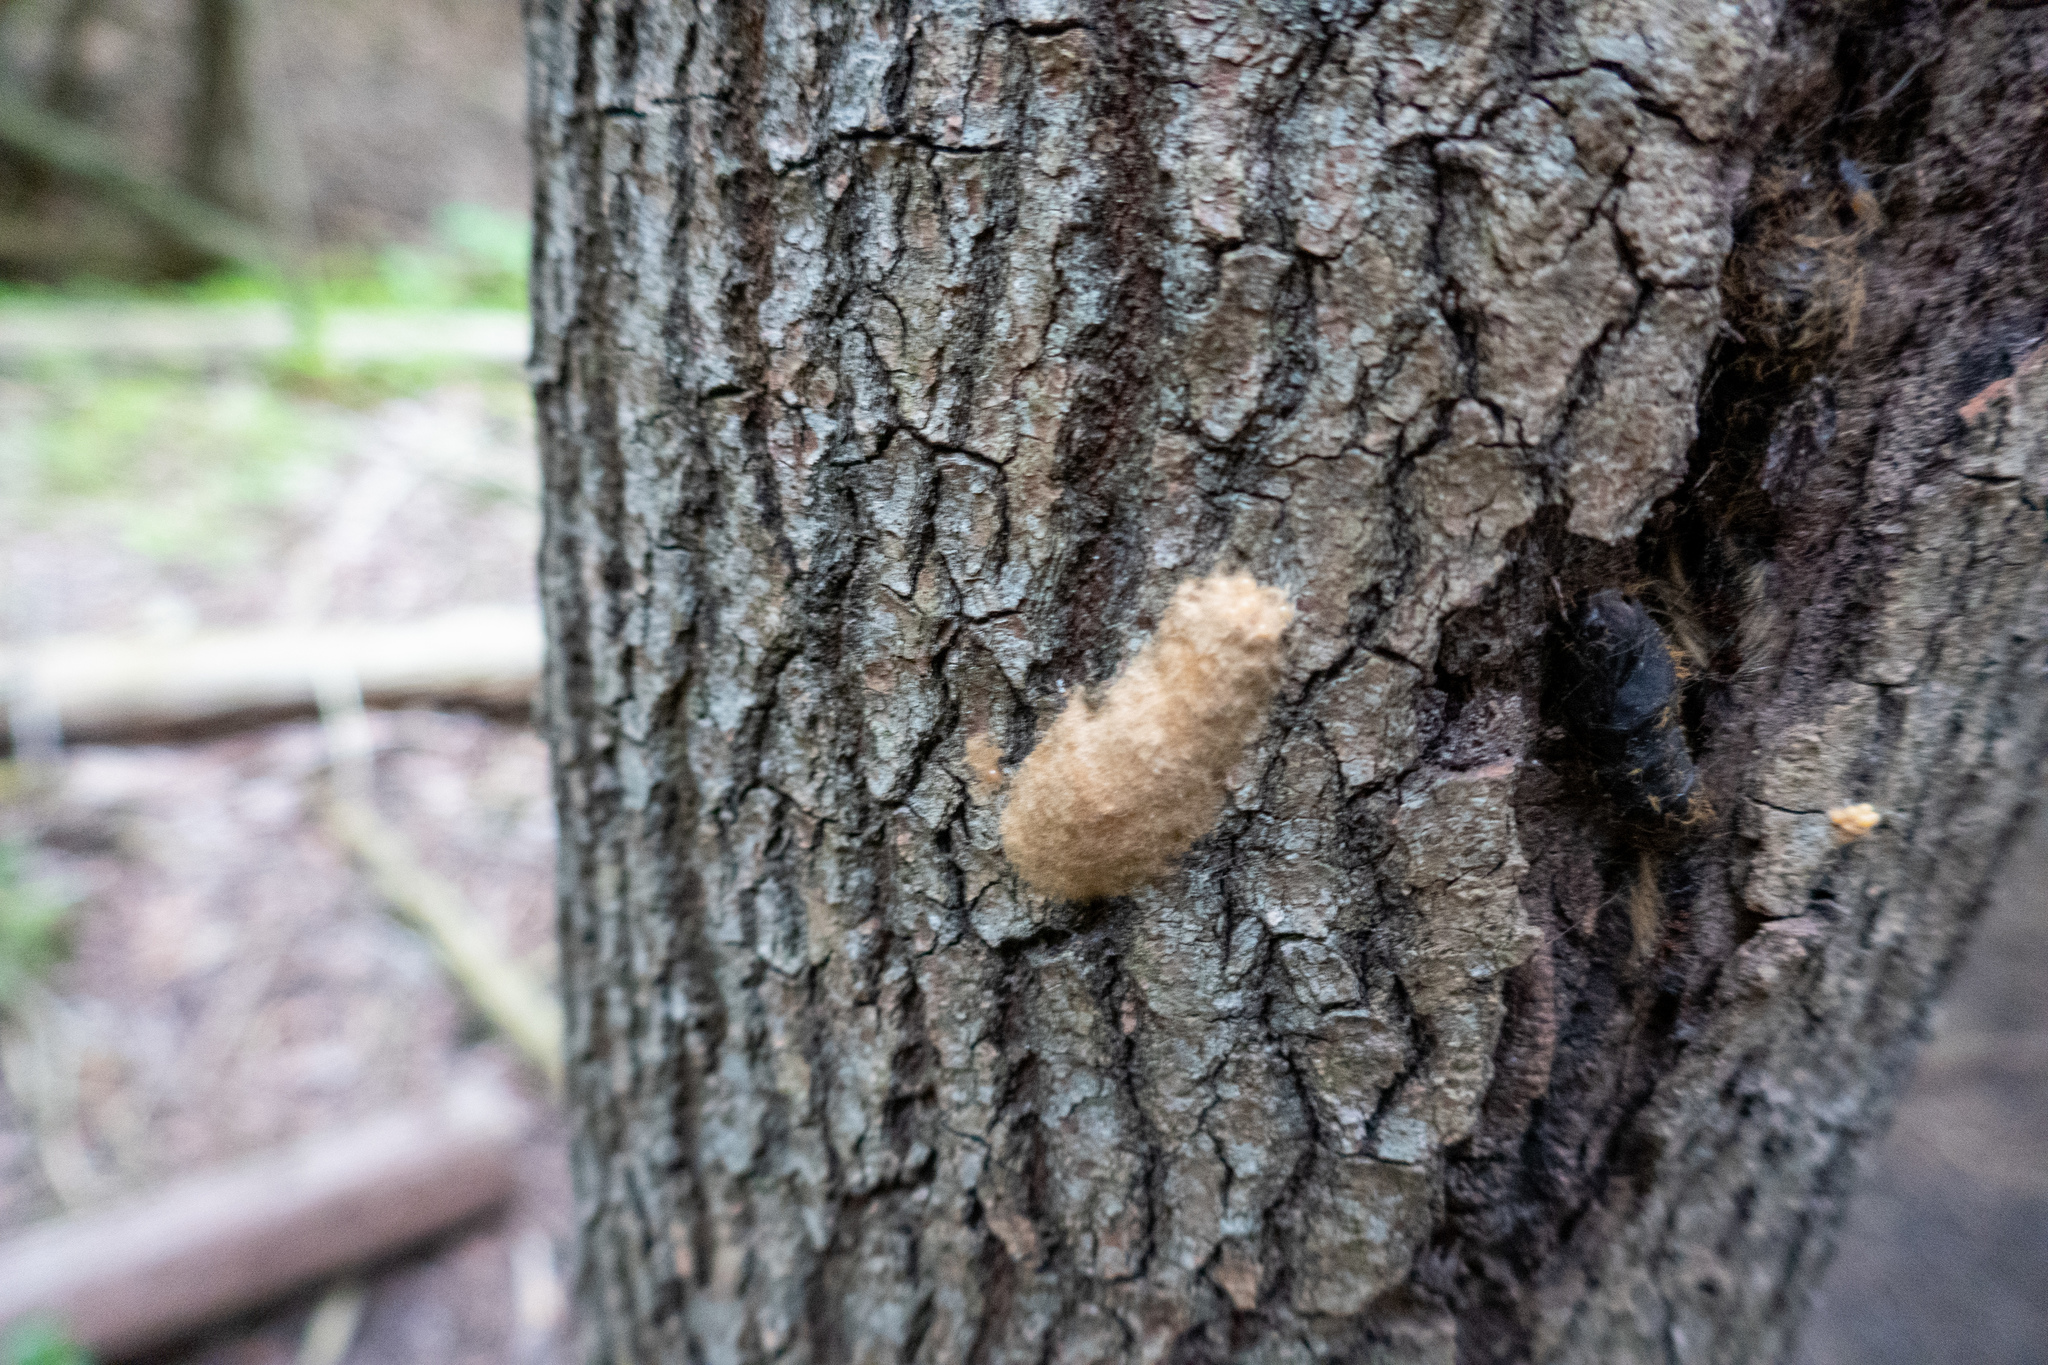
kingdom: Animalia
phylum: Arthropoda
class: Insecta
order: Lepidoptera
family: Erebidae
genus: Lymantria
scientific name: Lymantria dispar
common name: Gypsy moth
